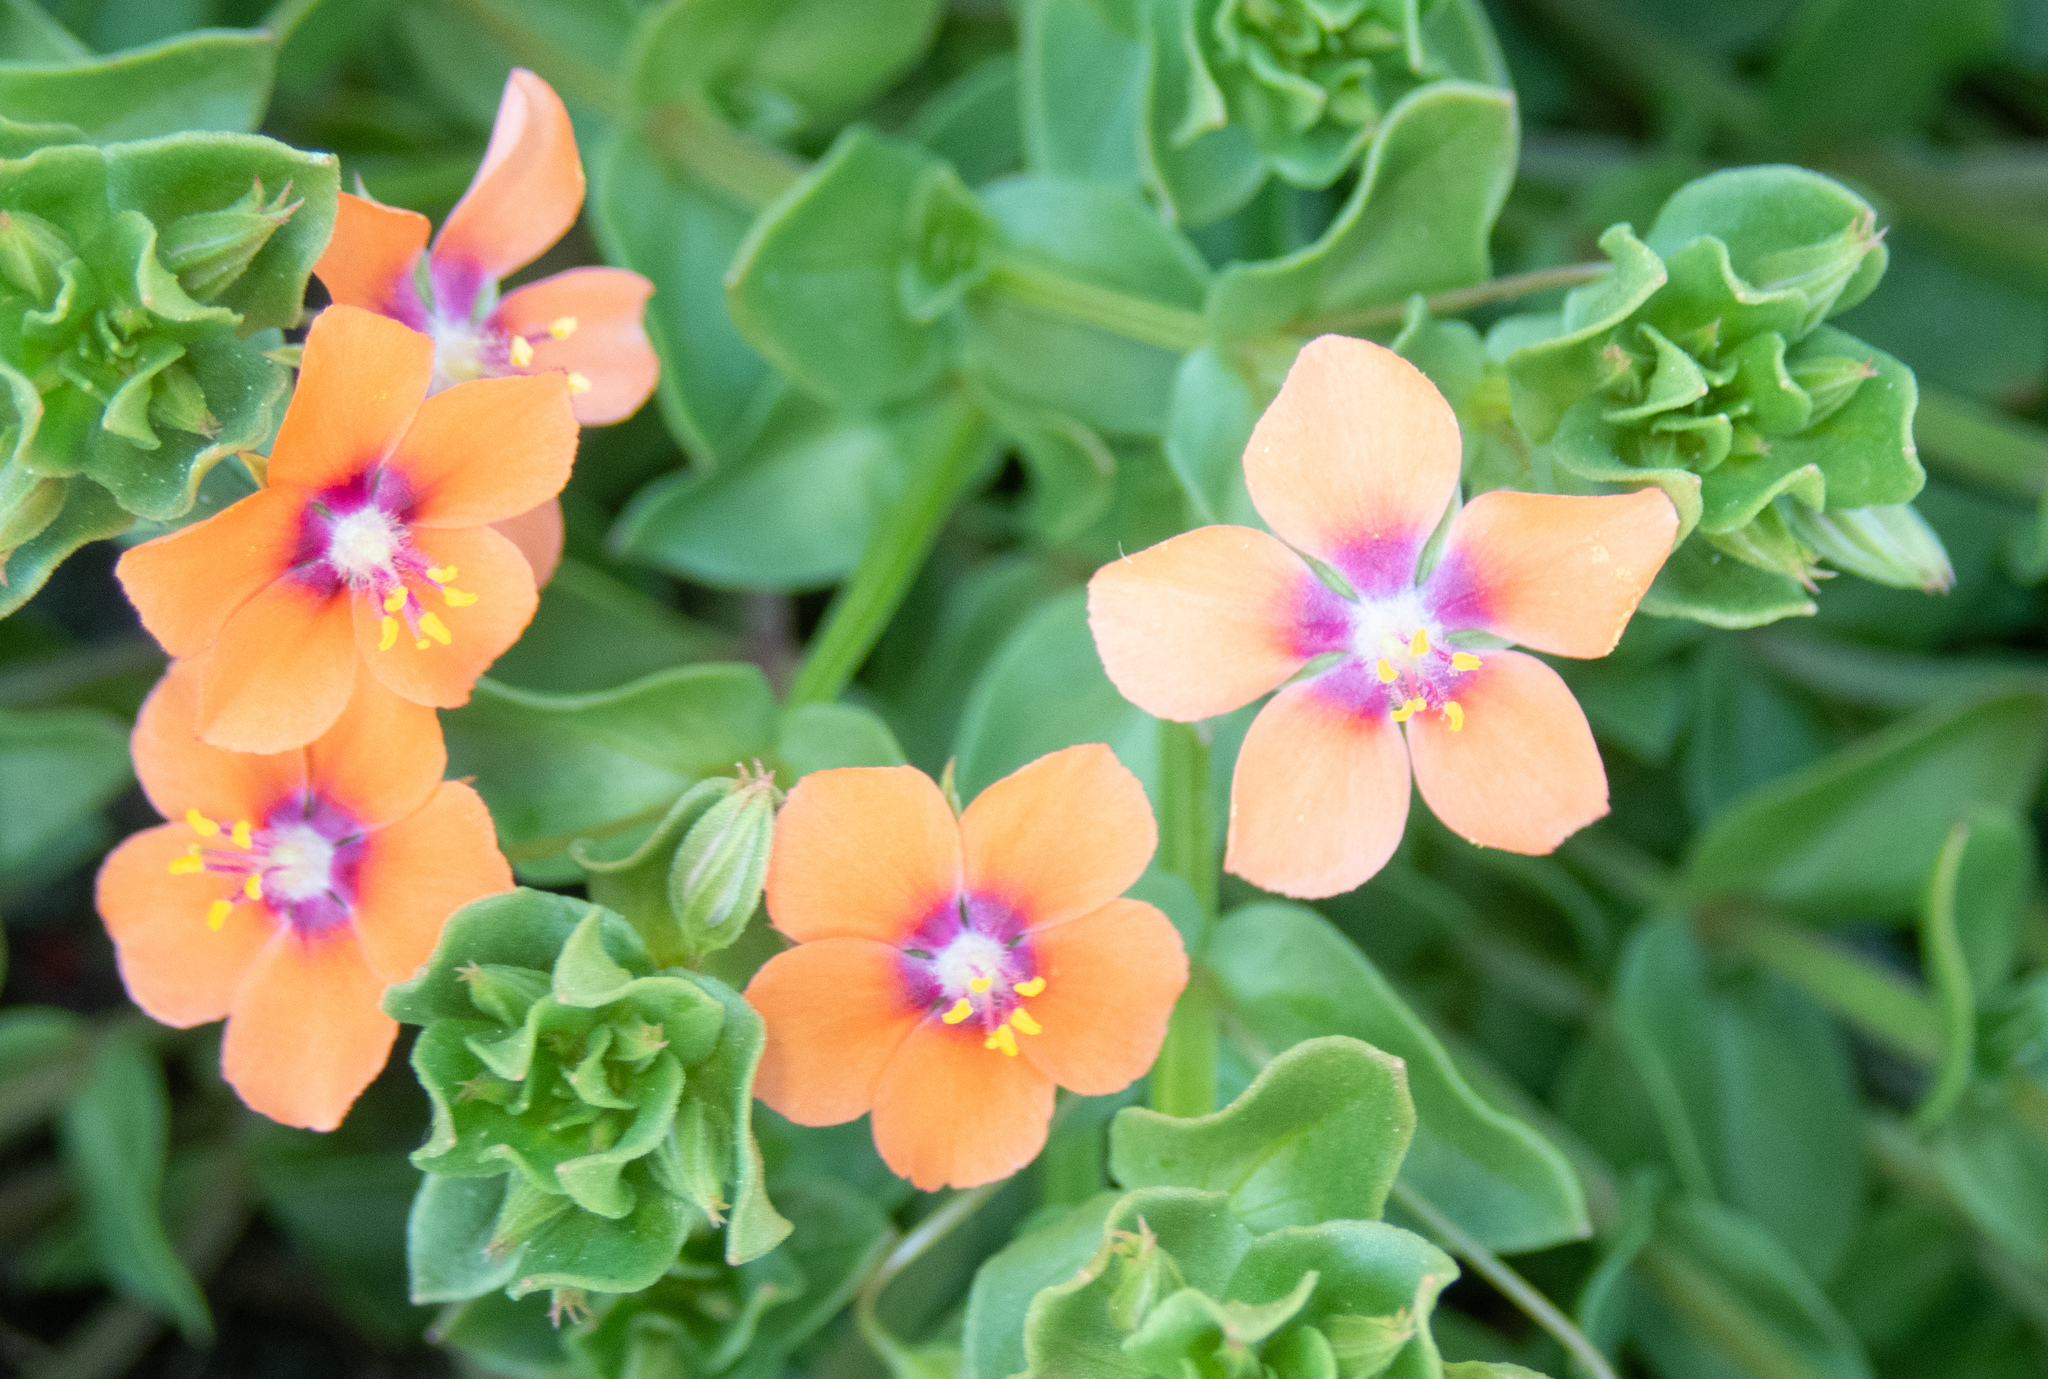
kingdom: Plantae
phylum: Tracheophyta
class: Magnoliopsida
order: Ericales
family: Primulaceae
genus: Lysimachia
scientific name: Lysimachia arvensis
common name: Scarlet pimpernel
